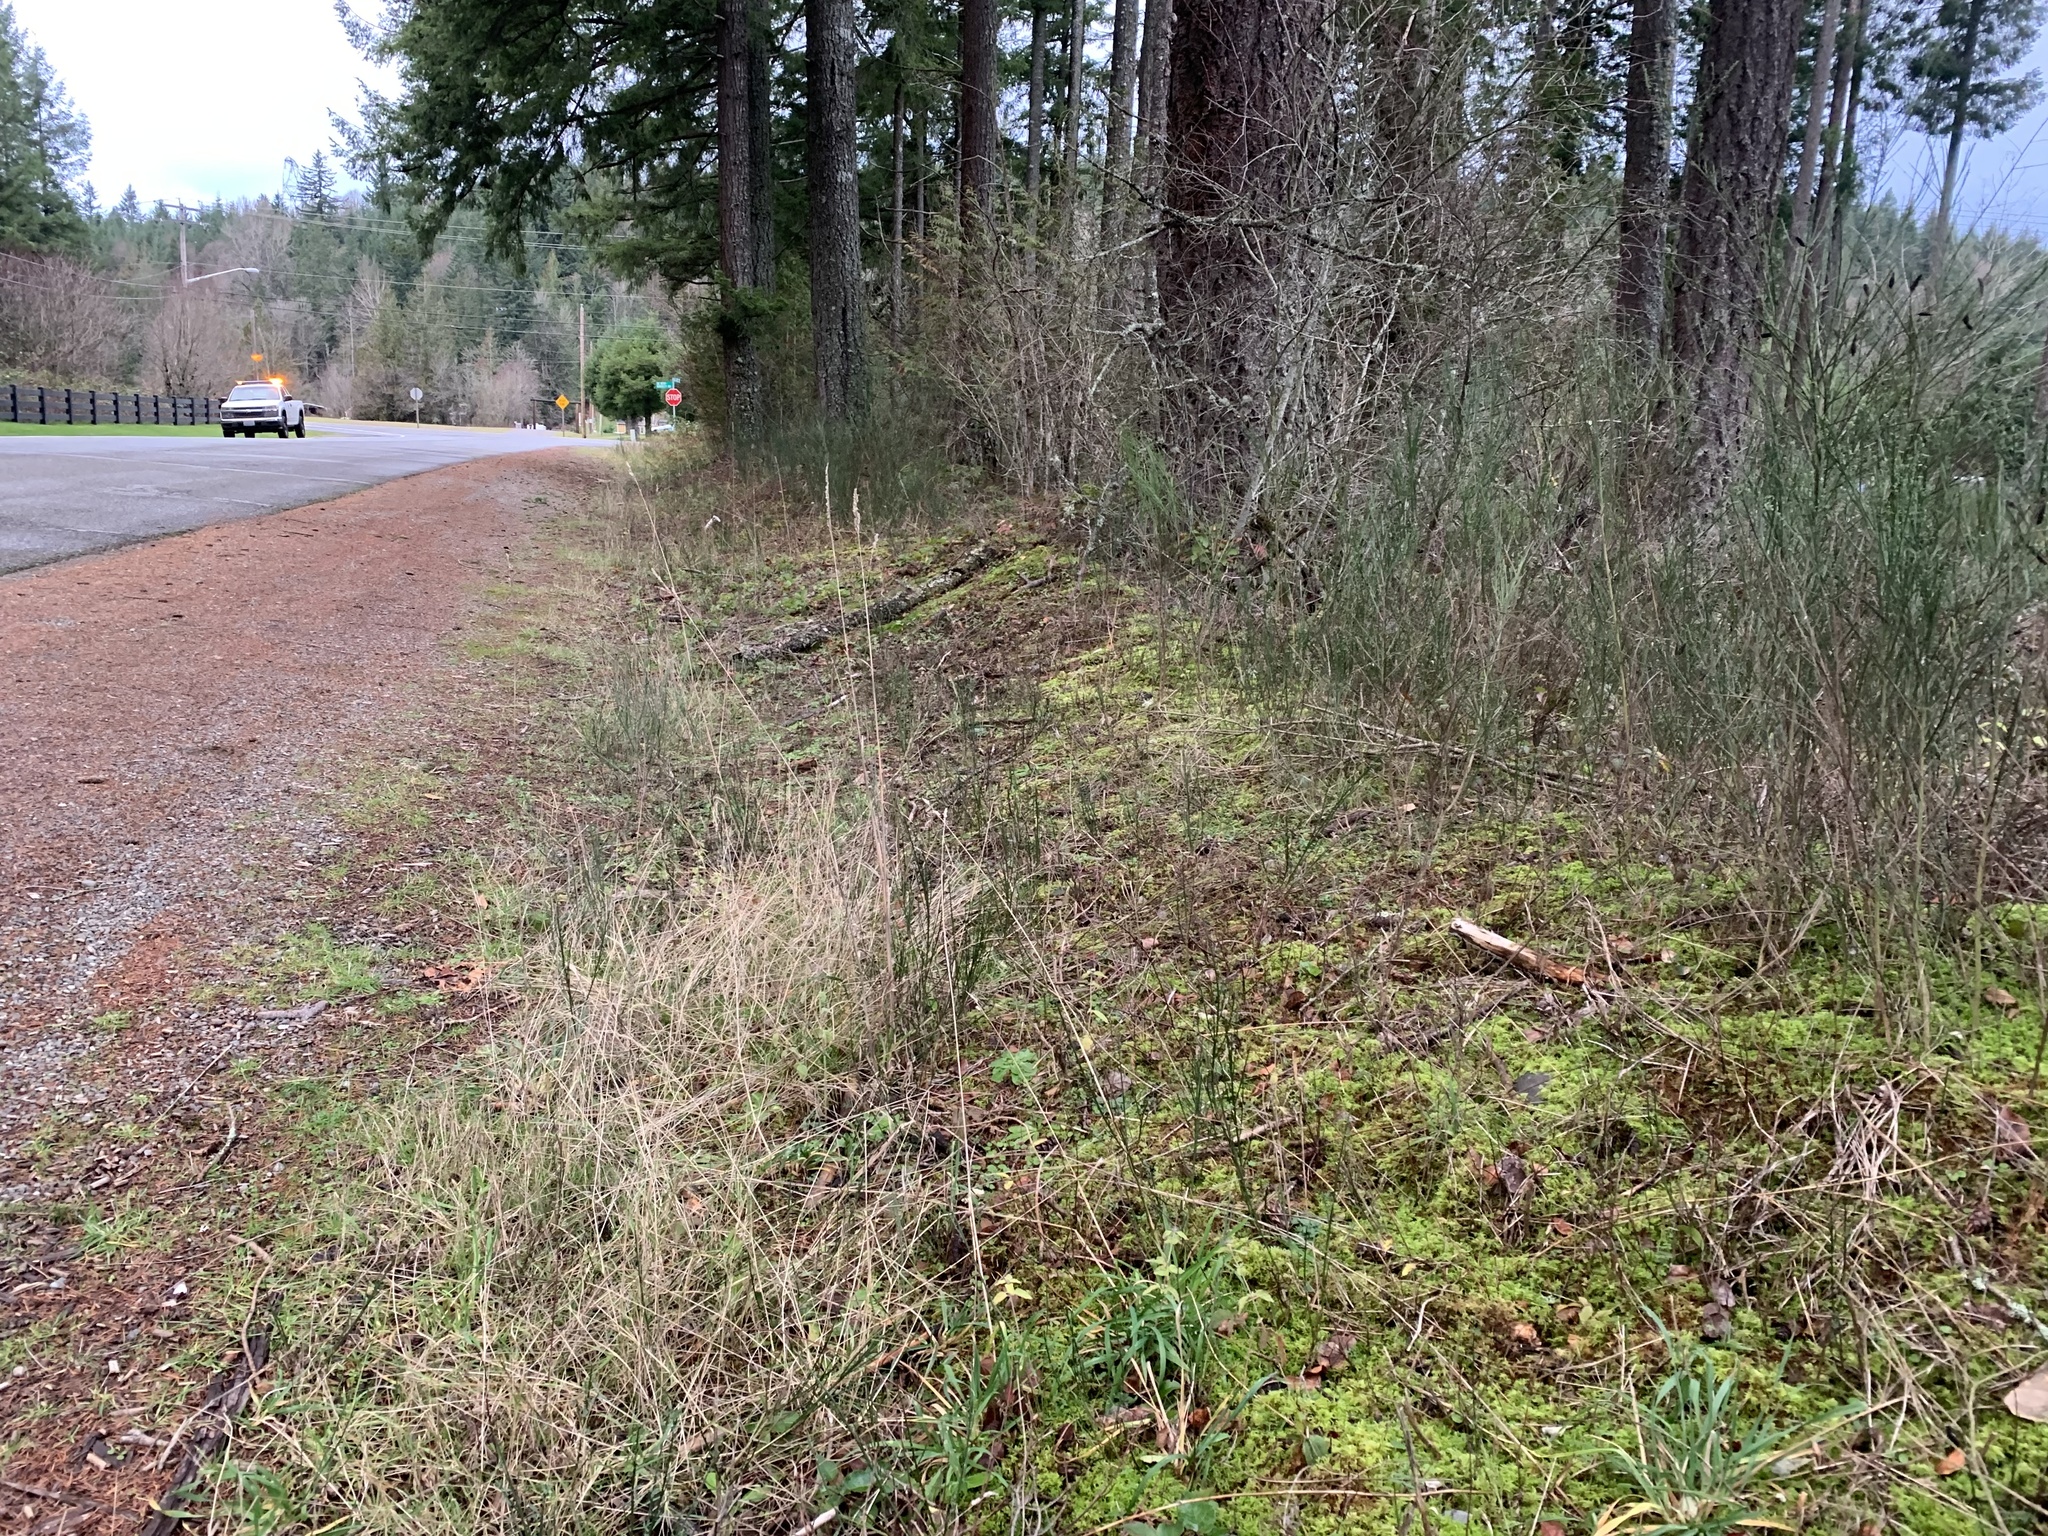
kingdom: Plantae
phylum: Tracheophyta
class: Magnoliopsida
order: Lamiales
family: Lamiaceae
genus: Clinopodium
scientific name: Clinopodium vulgare
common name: Wild basil
